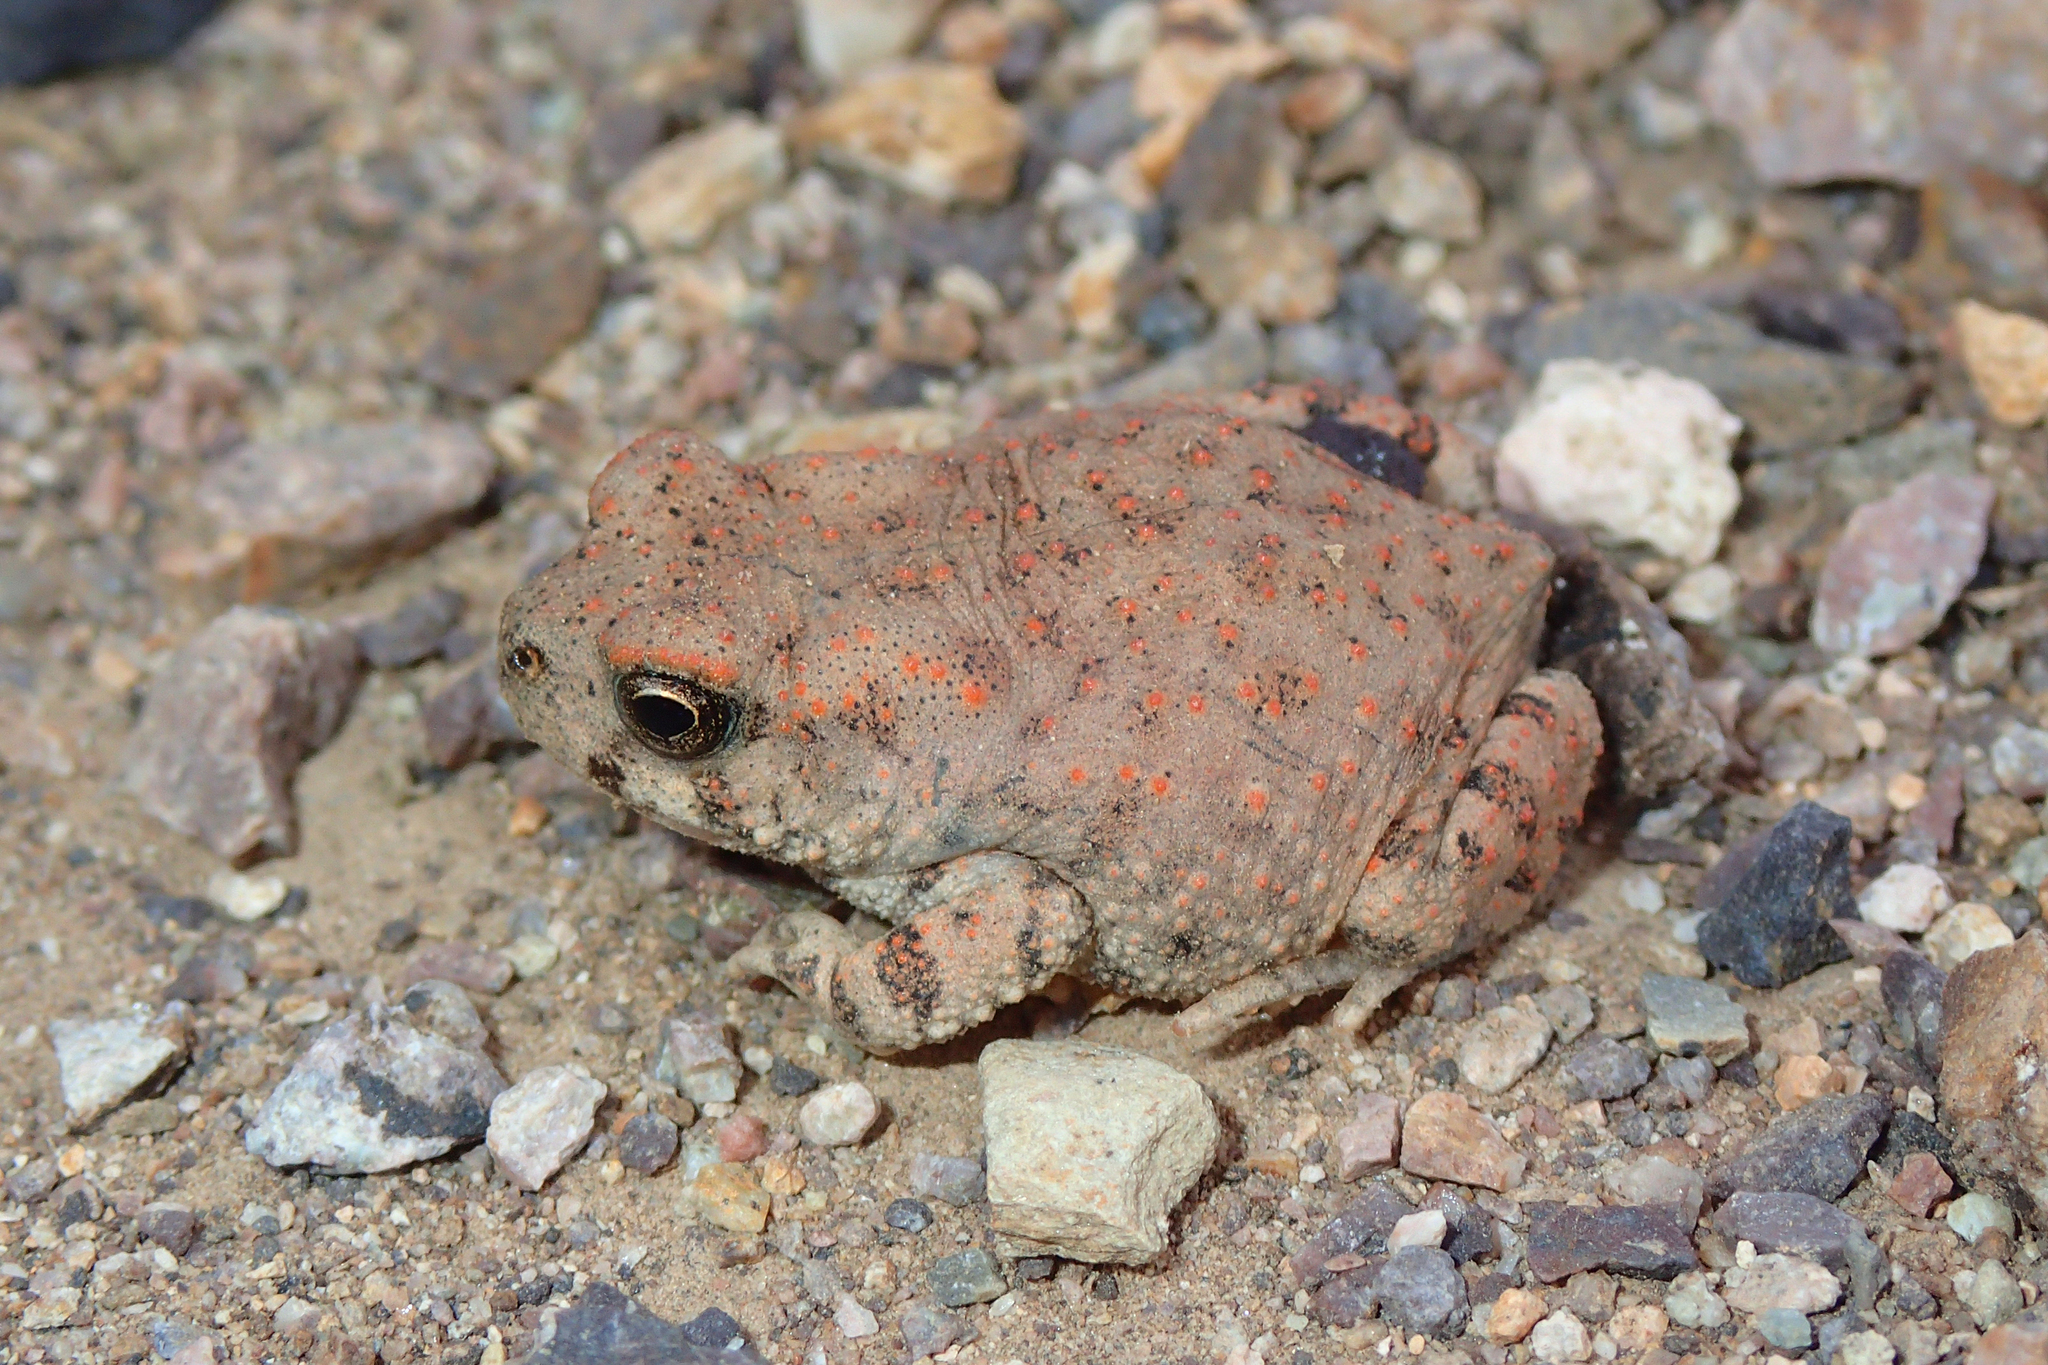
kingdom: Animalia
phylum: Chordata
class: Amphibia
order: Anura
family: Bufonidae
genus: Bufotes
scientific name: Bufotes boulengeri
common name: African green toad
